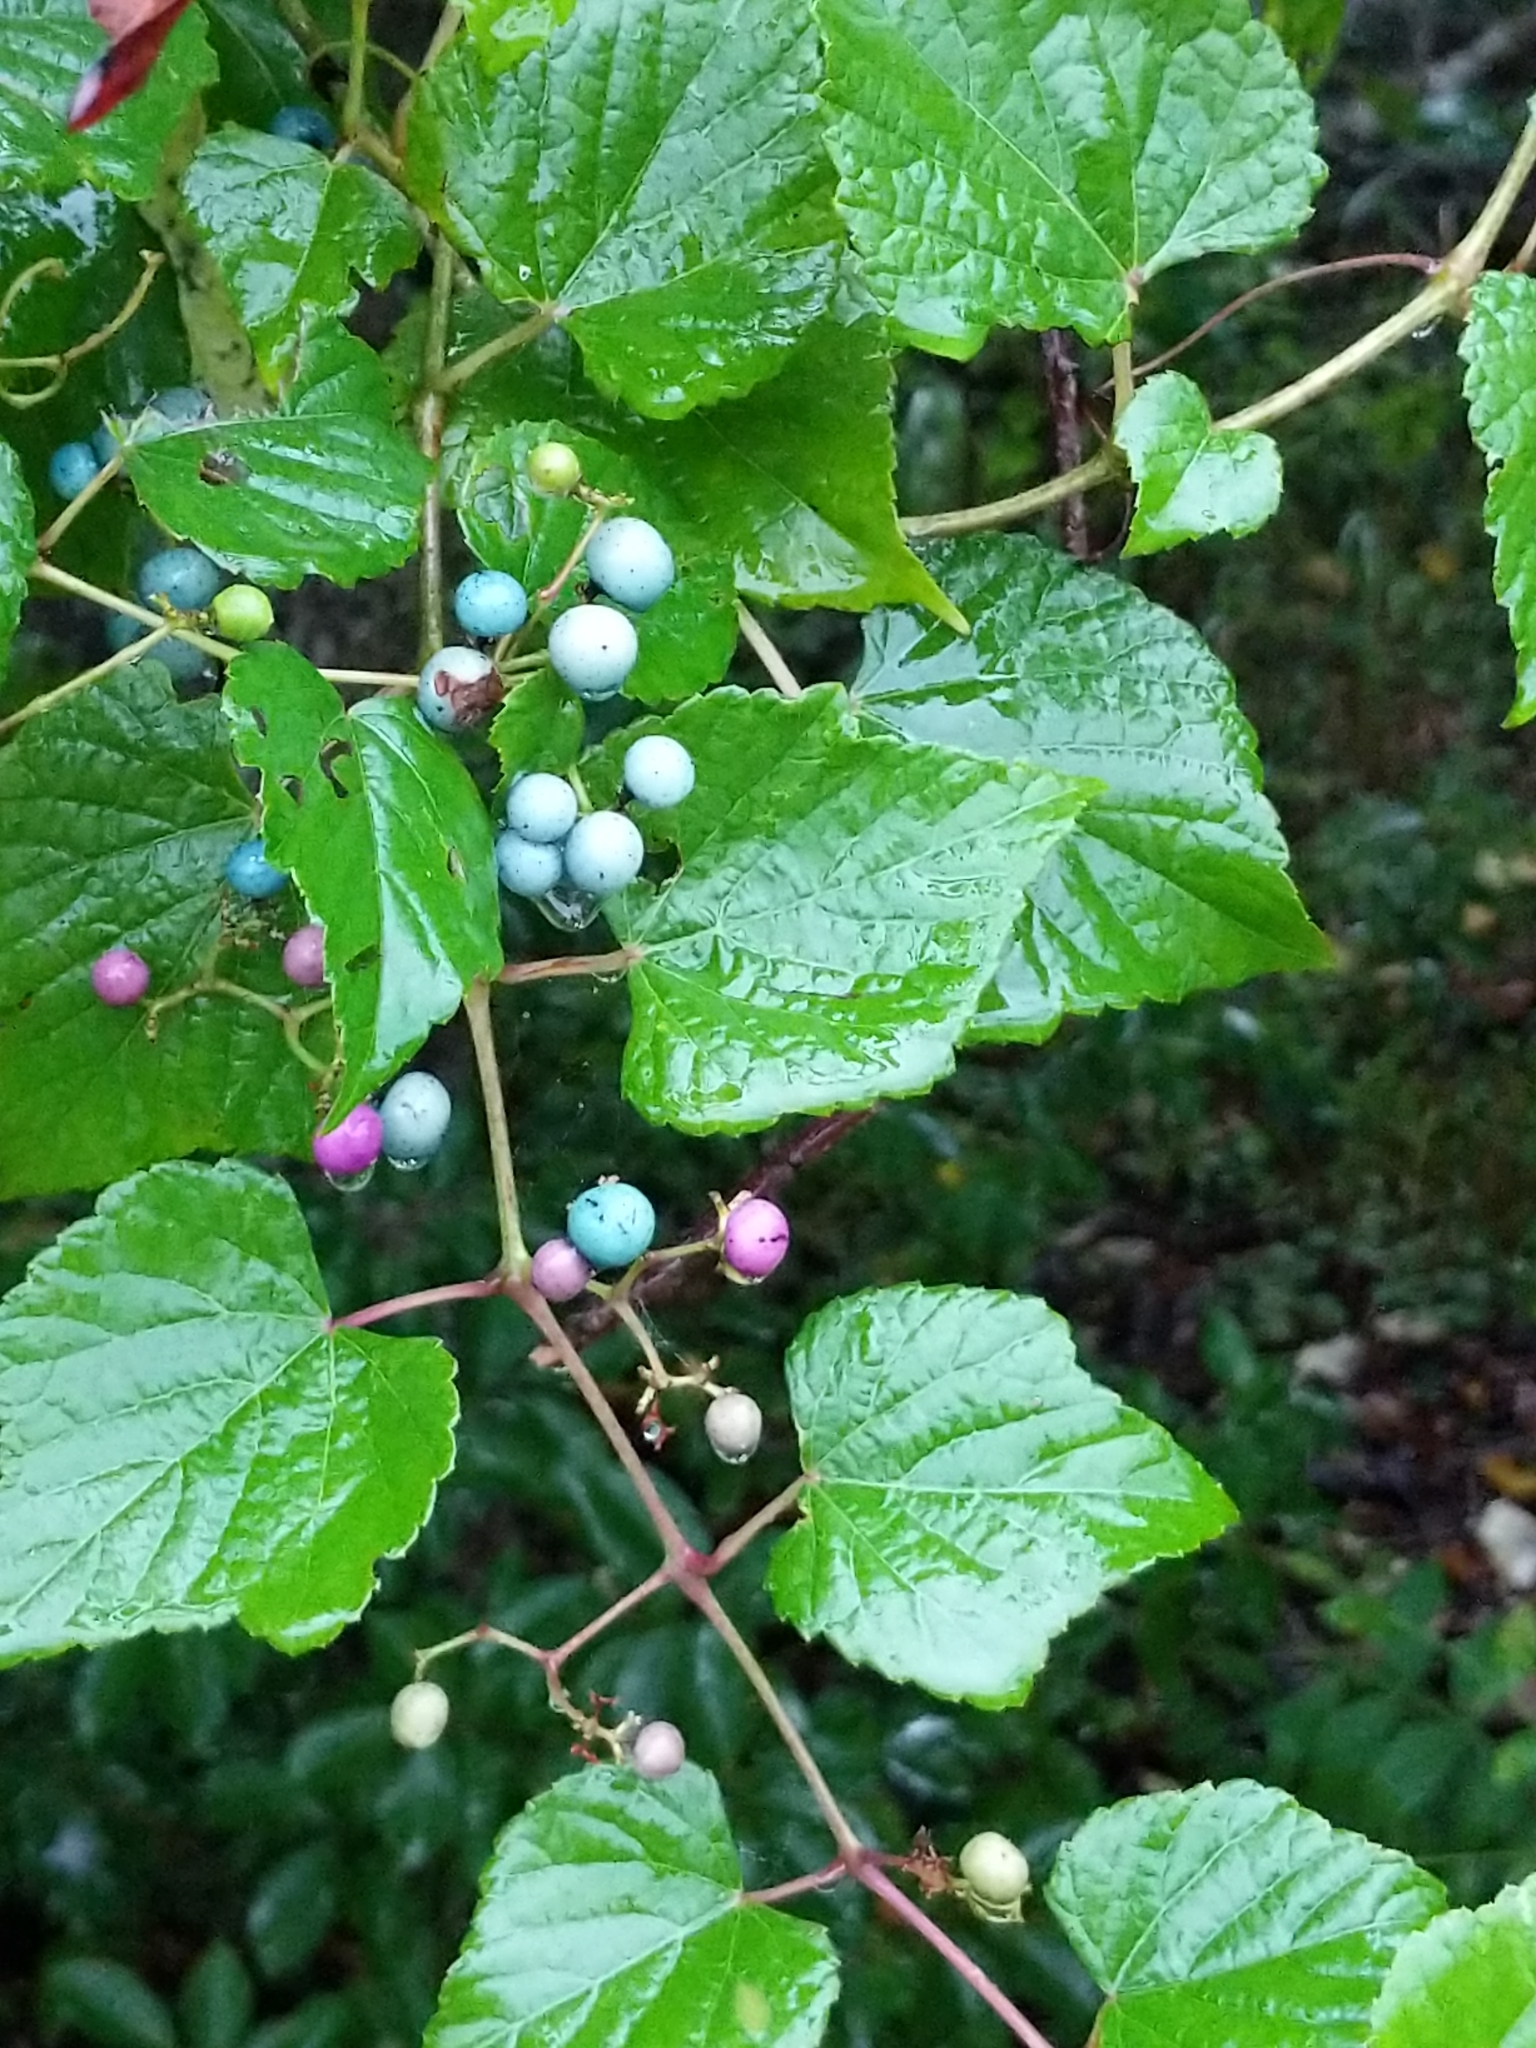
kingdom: Plantae
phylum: Tracheophyta
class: Magnoliopsida
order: Vitales
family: Vitaceae
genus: Ampelopsis
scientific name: Ampelopsis glandulosa
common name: Amur peppervine
